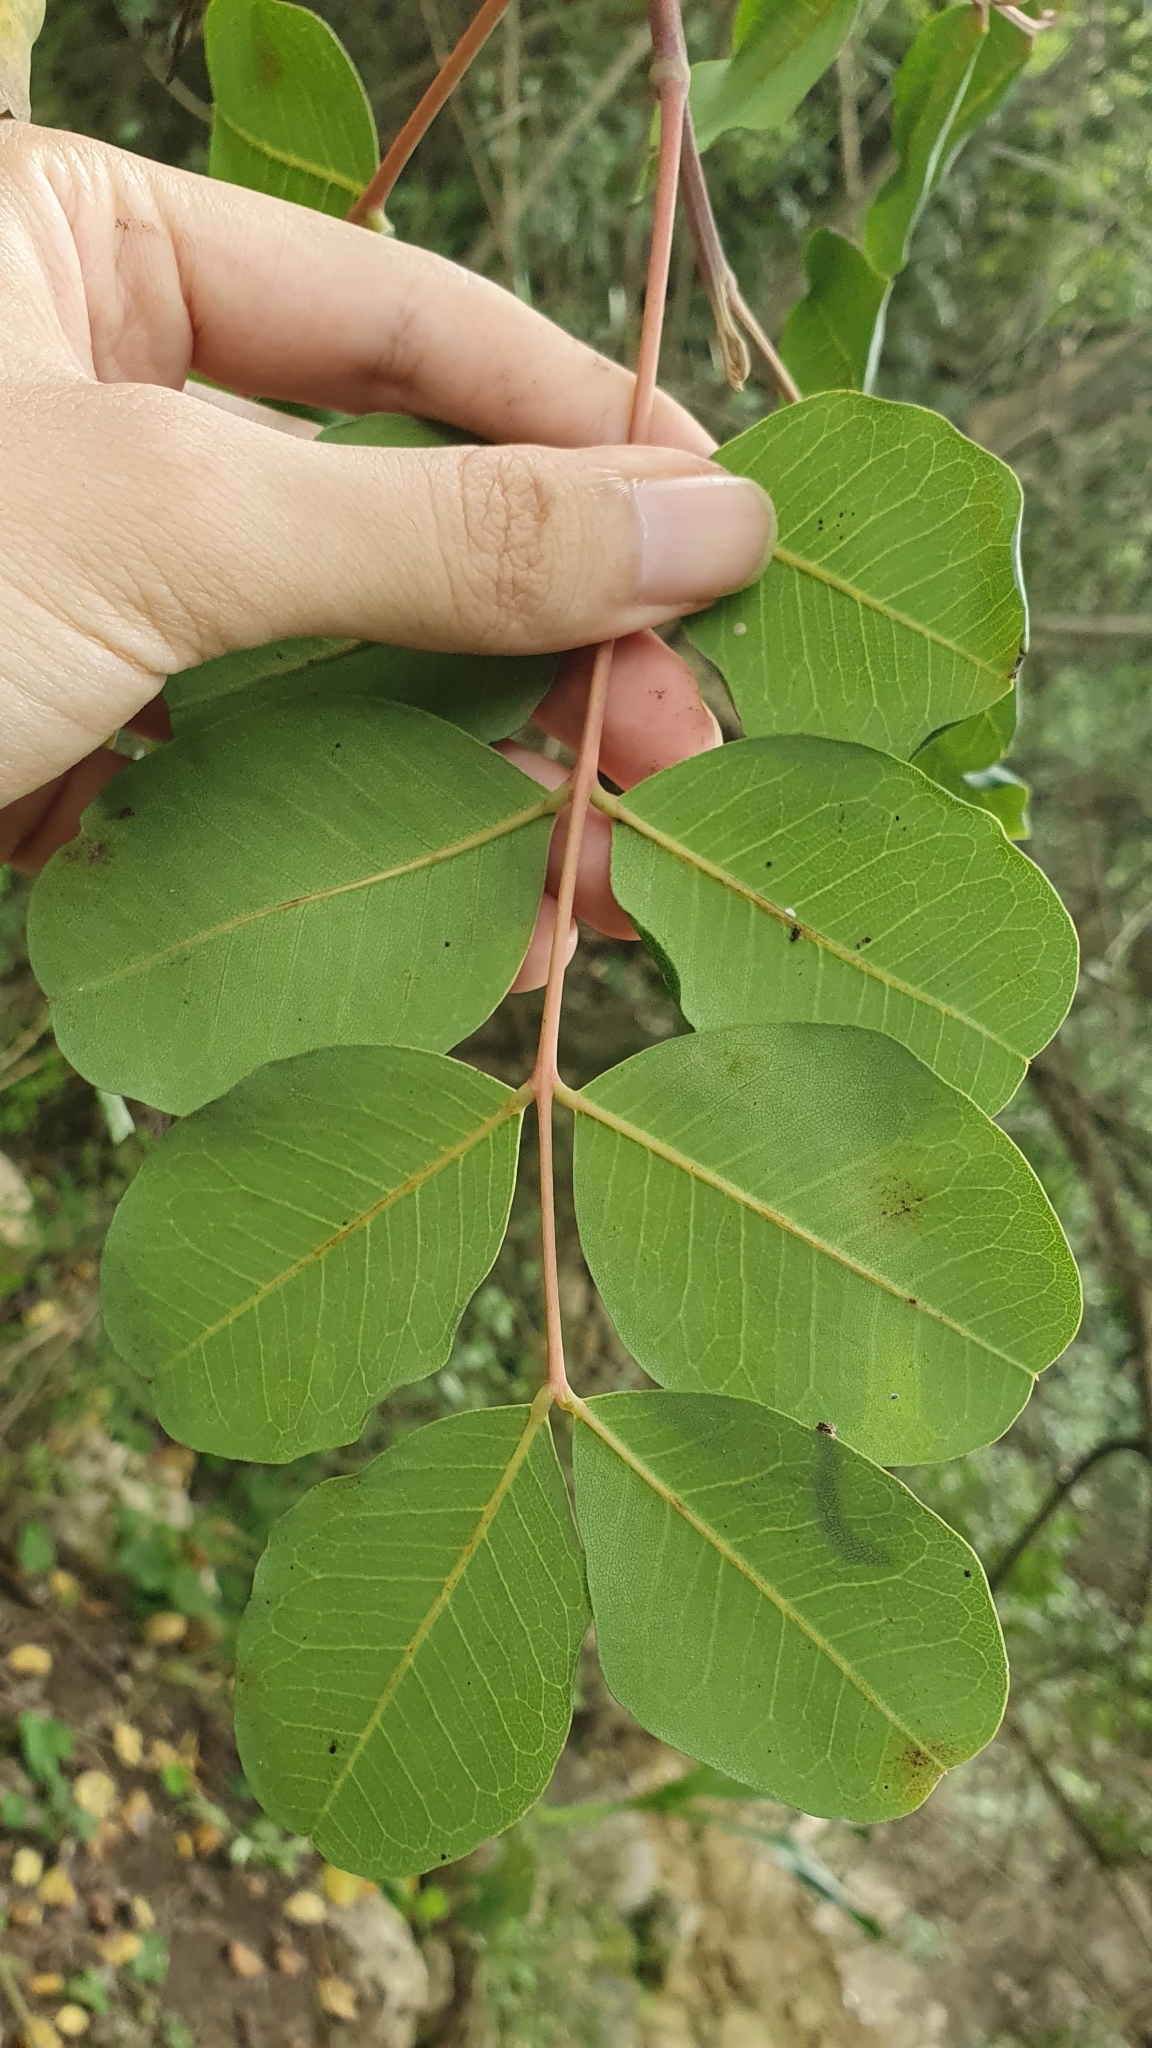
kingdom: Plantae
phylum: Tracheophyta
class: Magnoliopsida
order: Fabales
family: Fabaceae
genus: Ceratonia
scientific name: Ceratonia siliqua
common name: Carob
